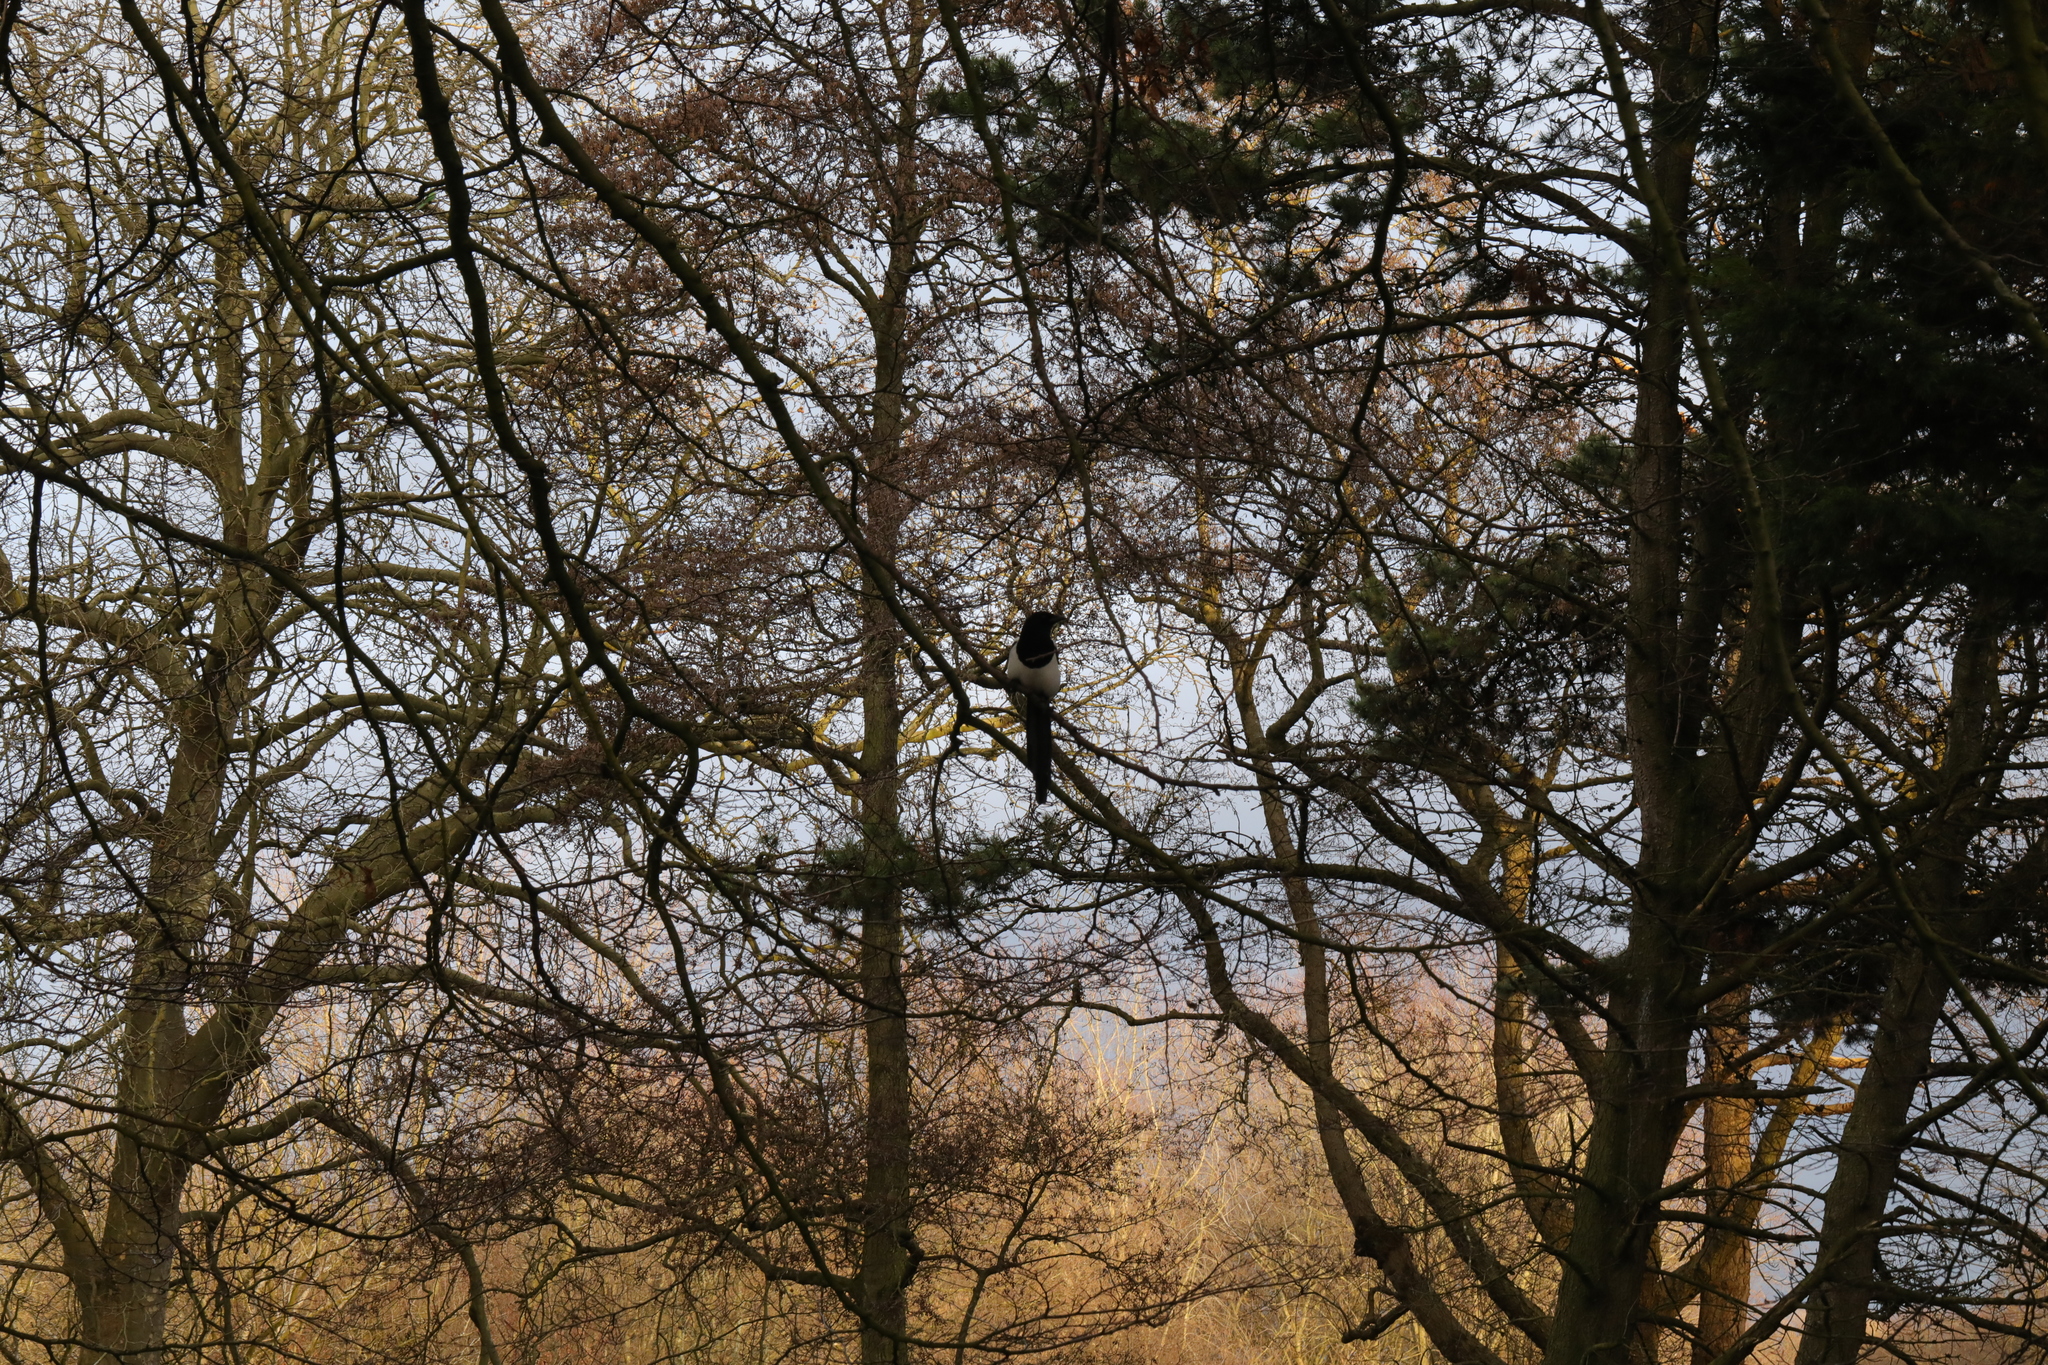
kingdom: Animalia
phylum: Chordata
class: Aves
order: Passeriformes
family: Corvidae
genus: Pica
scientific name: Pica pica
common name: Eurasian magpie
